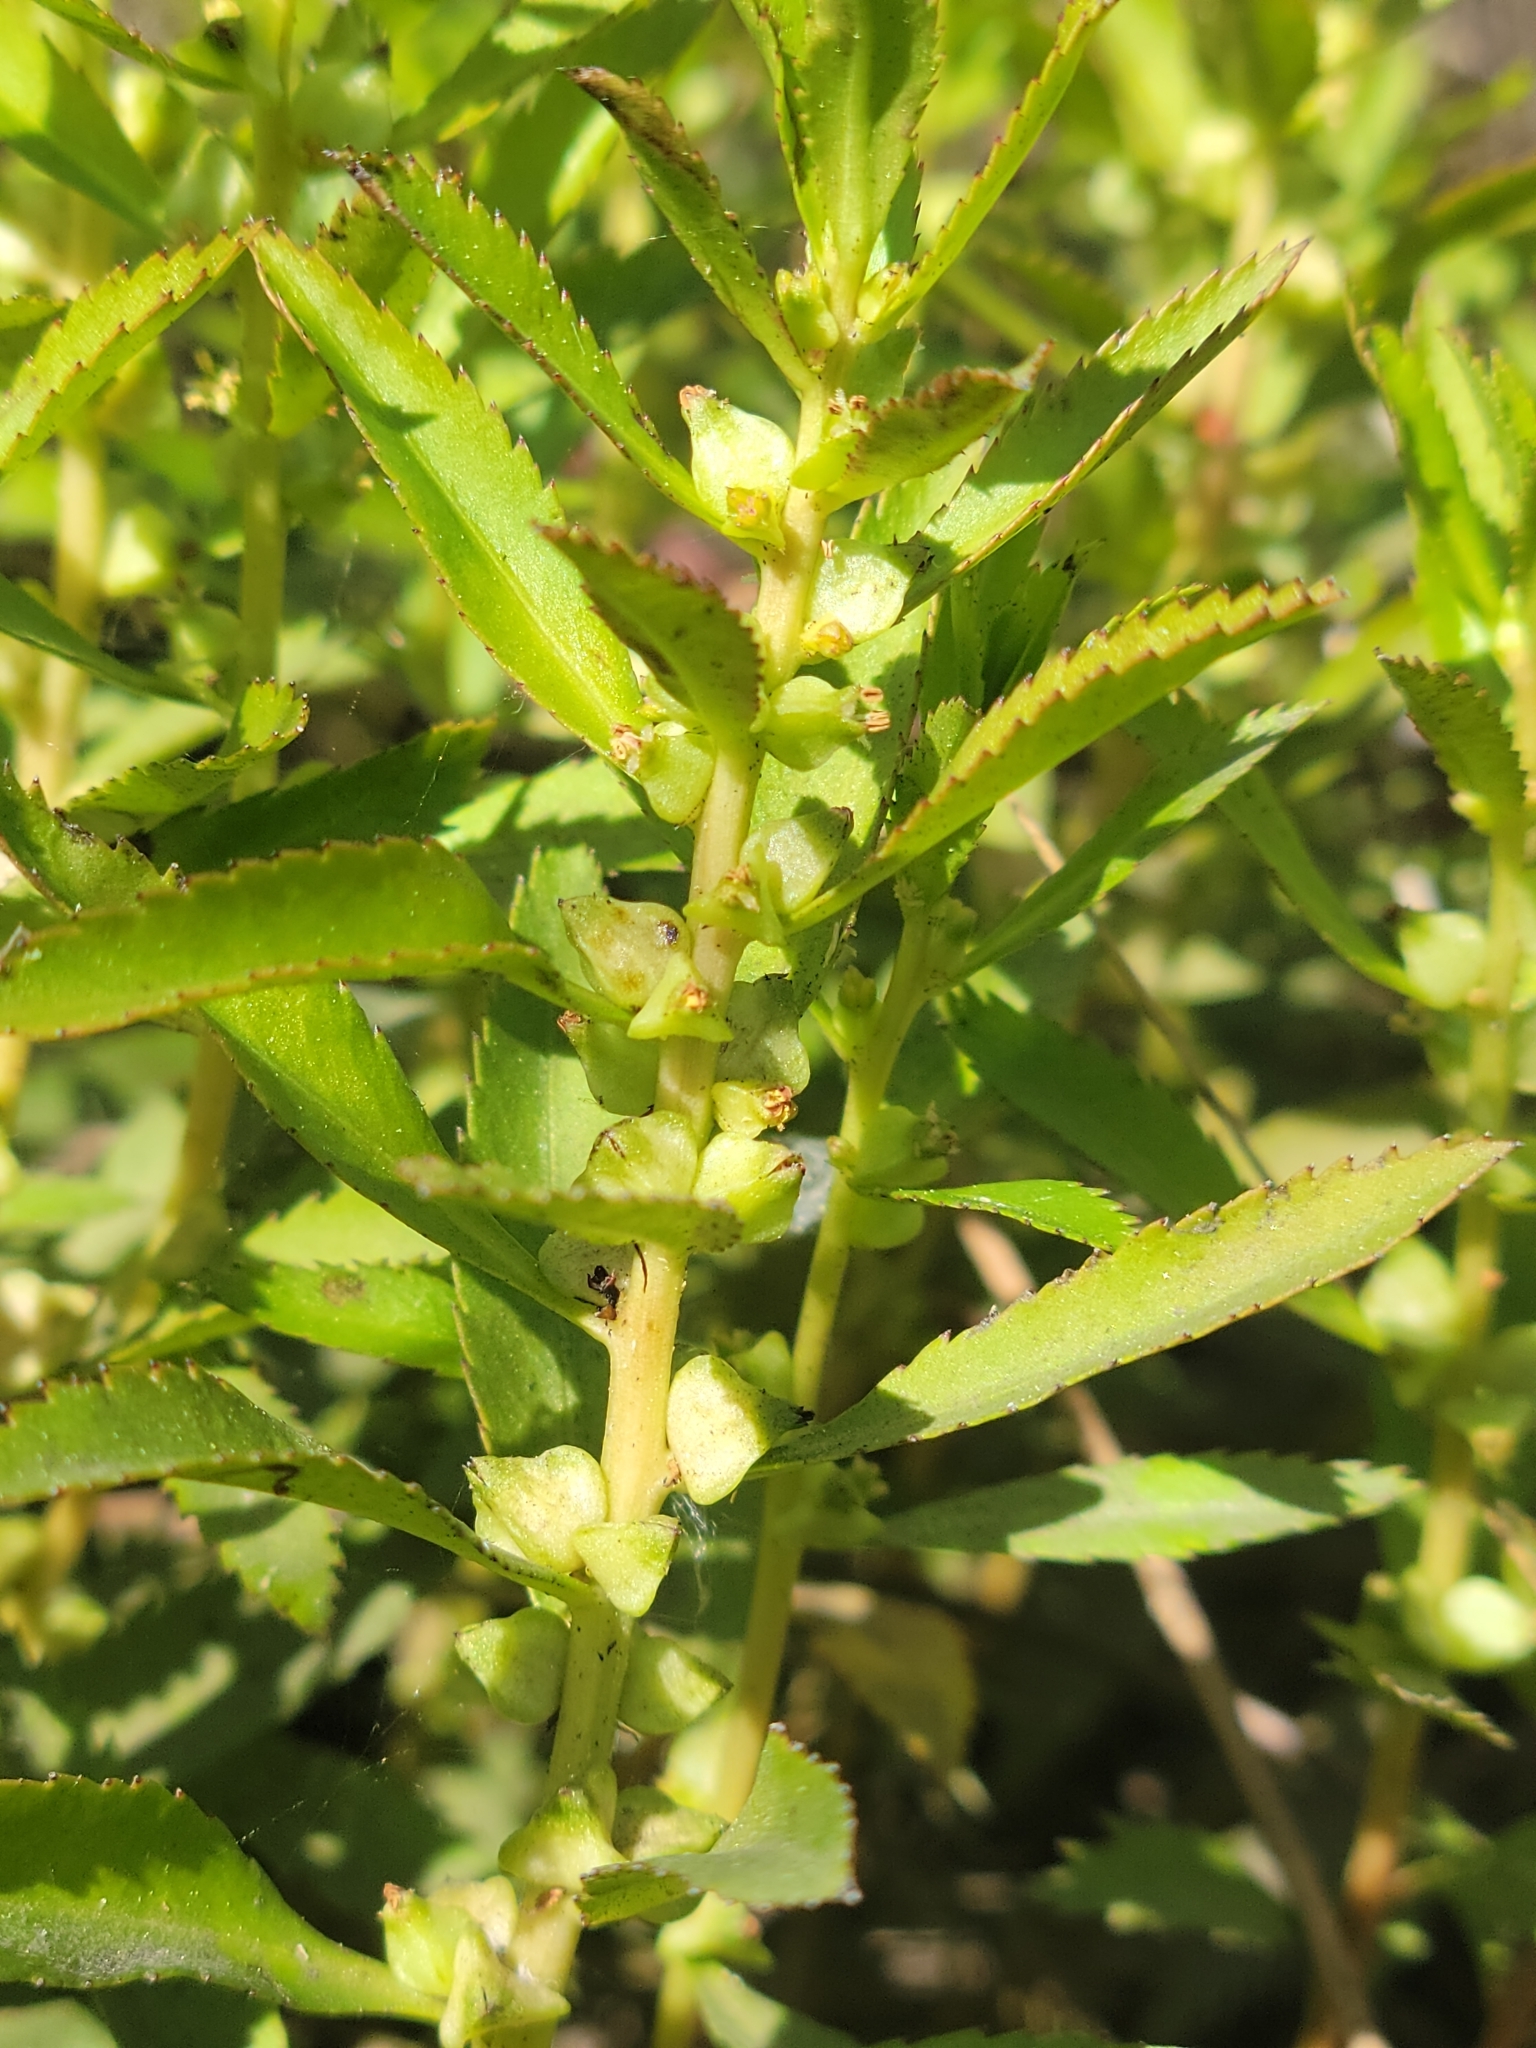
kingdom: Plantae
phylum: Tracheophyta
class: Magnoliopsida
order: Saxifragales
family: Haloragaceae
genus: Proserpinaca
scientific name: Proserpinaca palustris
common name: Marsh mermaidweed
